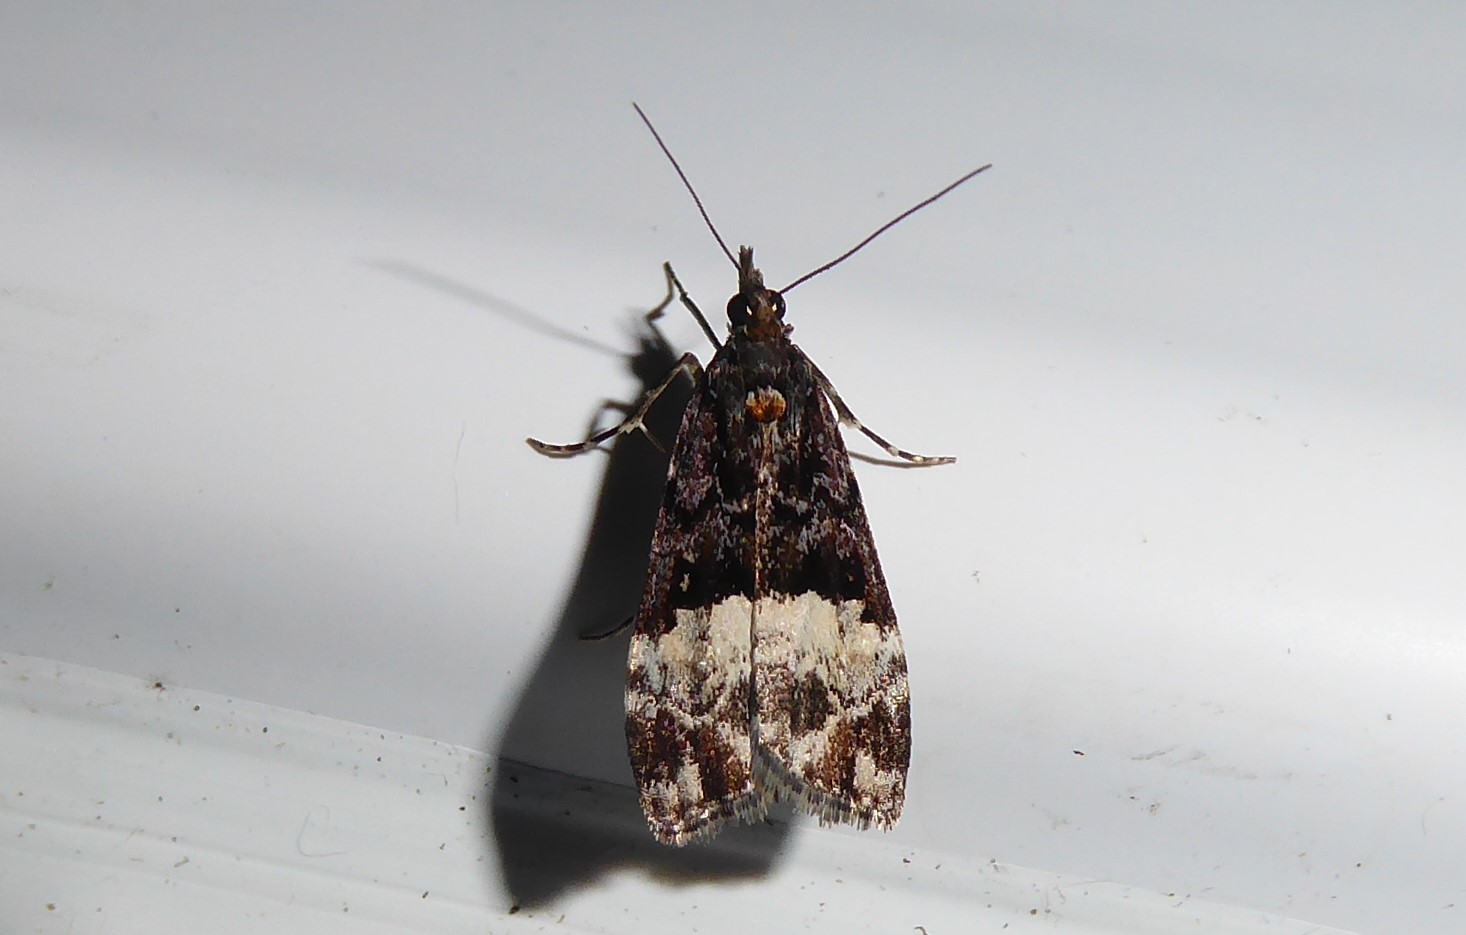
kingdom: Animalia
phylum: Arthropoda
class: Insecta
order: Lepidoptera
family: Crambidae
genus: Scoparia
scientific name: Scoparia minusculalis
